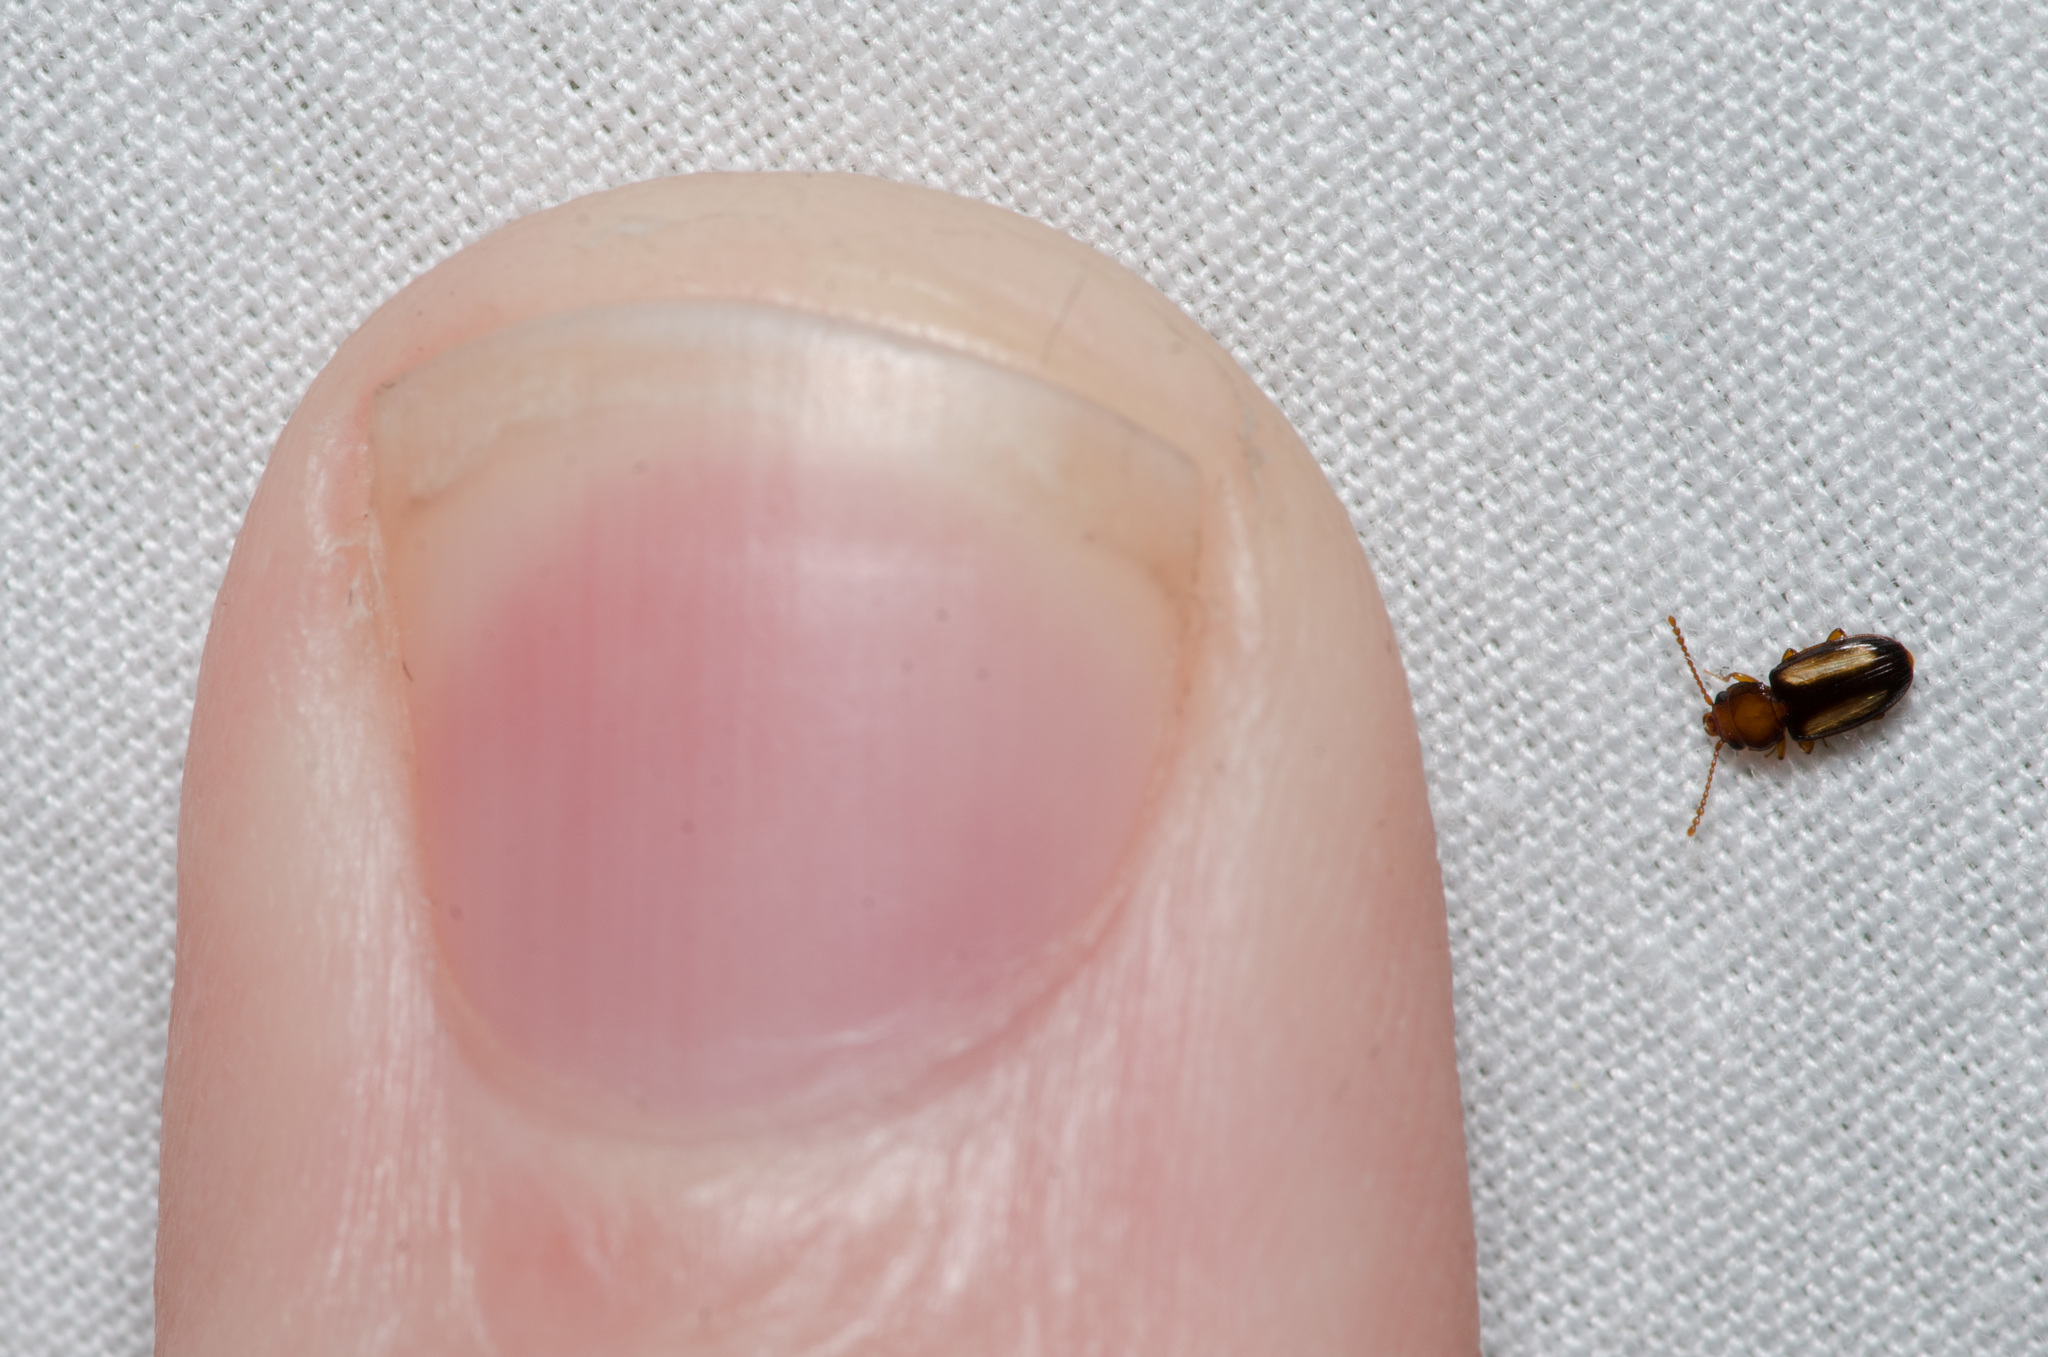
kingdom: Animalia
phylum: Arthropoda
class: Insecta
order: Coleoptera
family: Laemophloeidae
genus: Laemophloeus
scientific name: Laemophloeus terminalis
